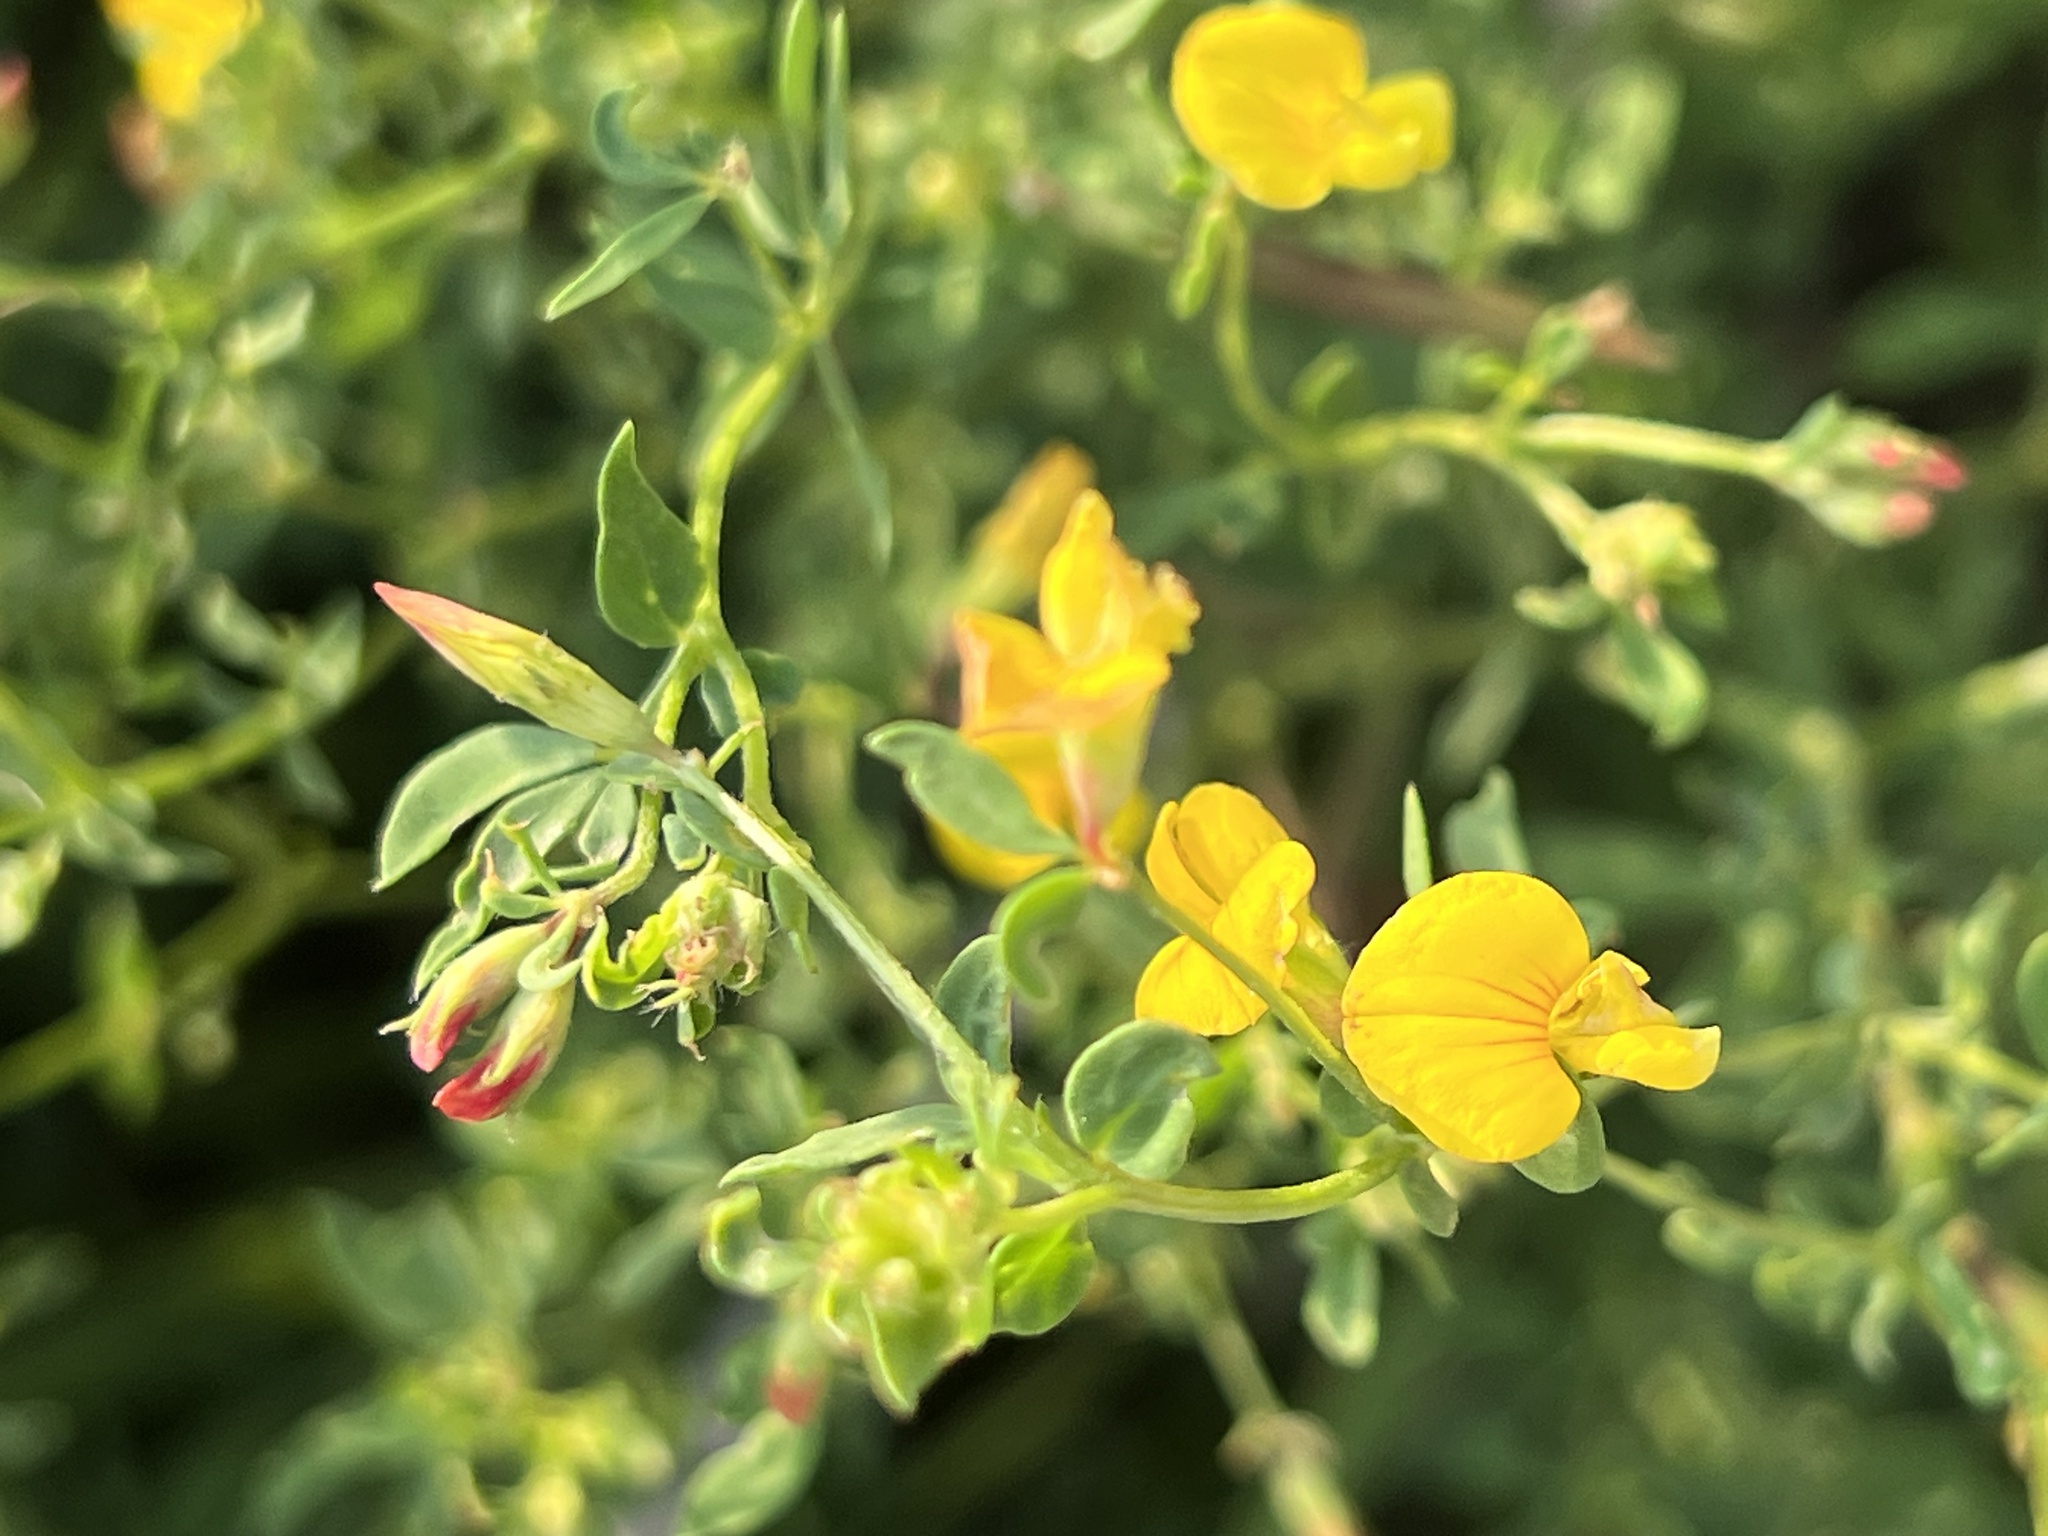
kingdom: Plantae
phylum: Tracheophyta
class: Magnoliopsida
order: Fabales
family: Fabaceae
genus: Lotus
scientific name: Lotus corniculatus
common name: Common bird's-foot-trefoil
